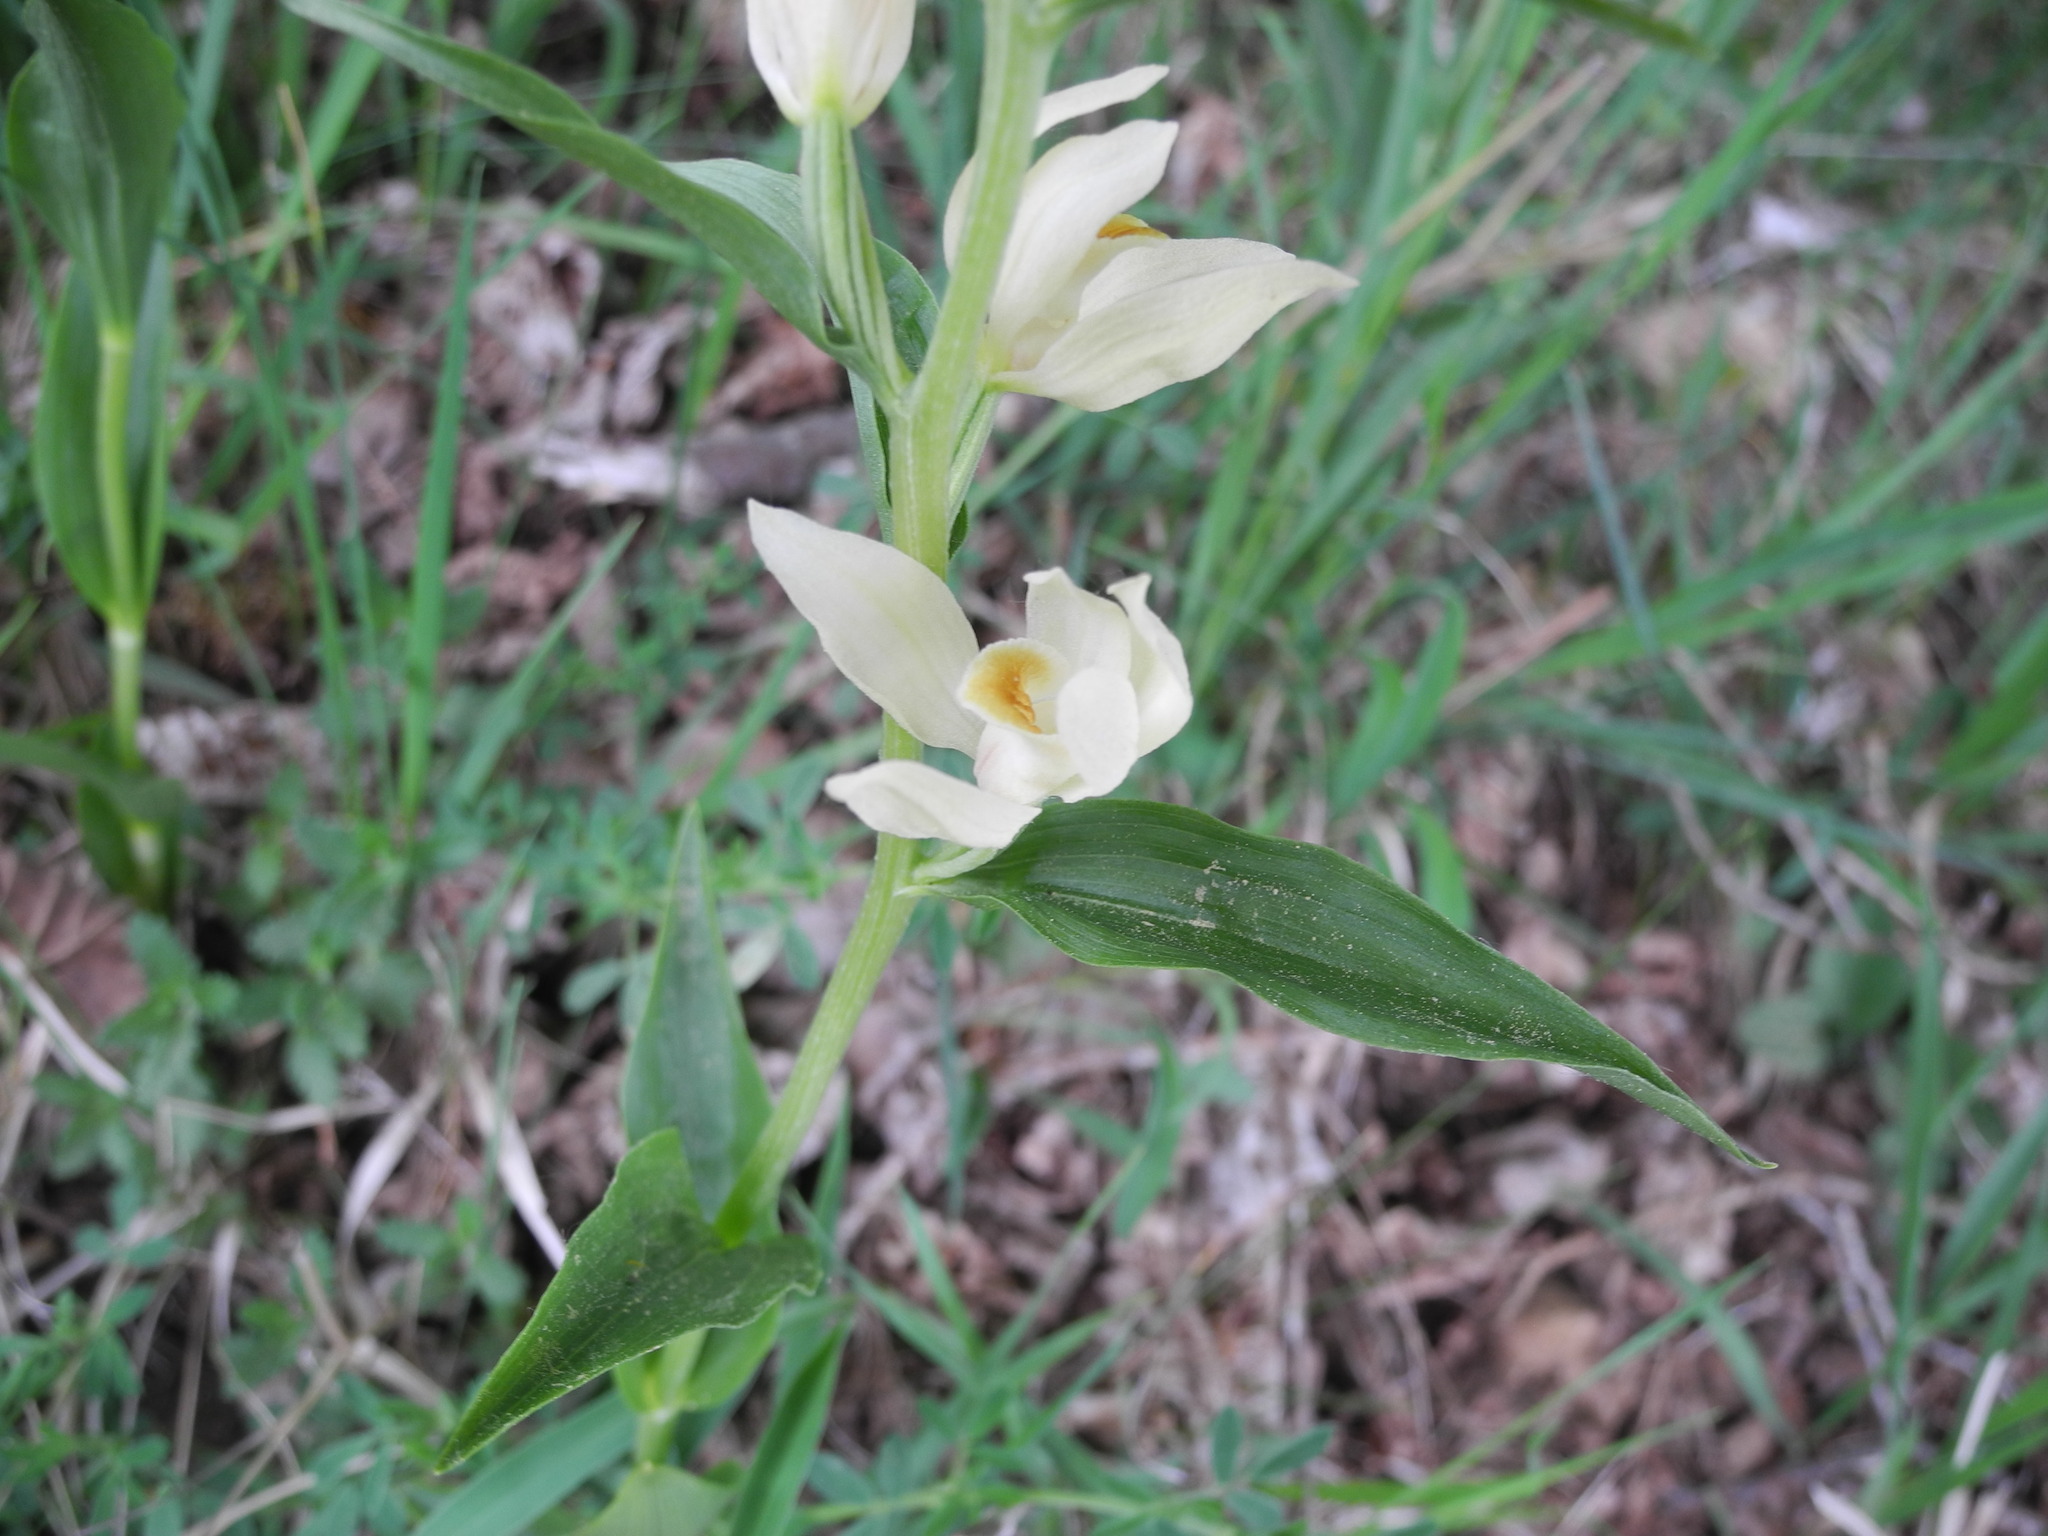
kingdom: Plantae
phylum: Tracheophyta
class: Liliopsida
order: Asparagales
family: Orchidaceae
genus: Cephalanthera
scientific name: Cephalanthera damasonium
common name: White helleborine
